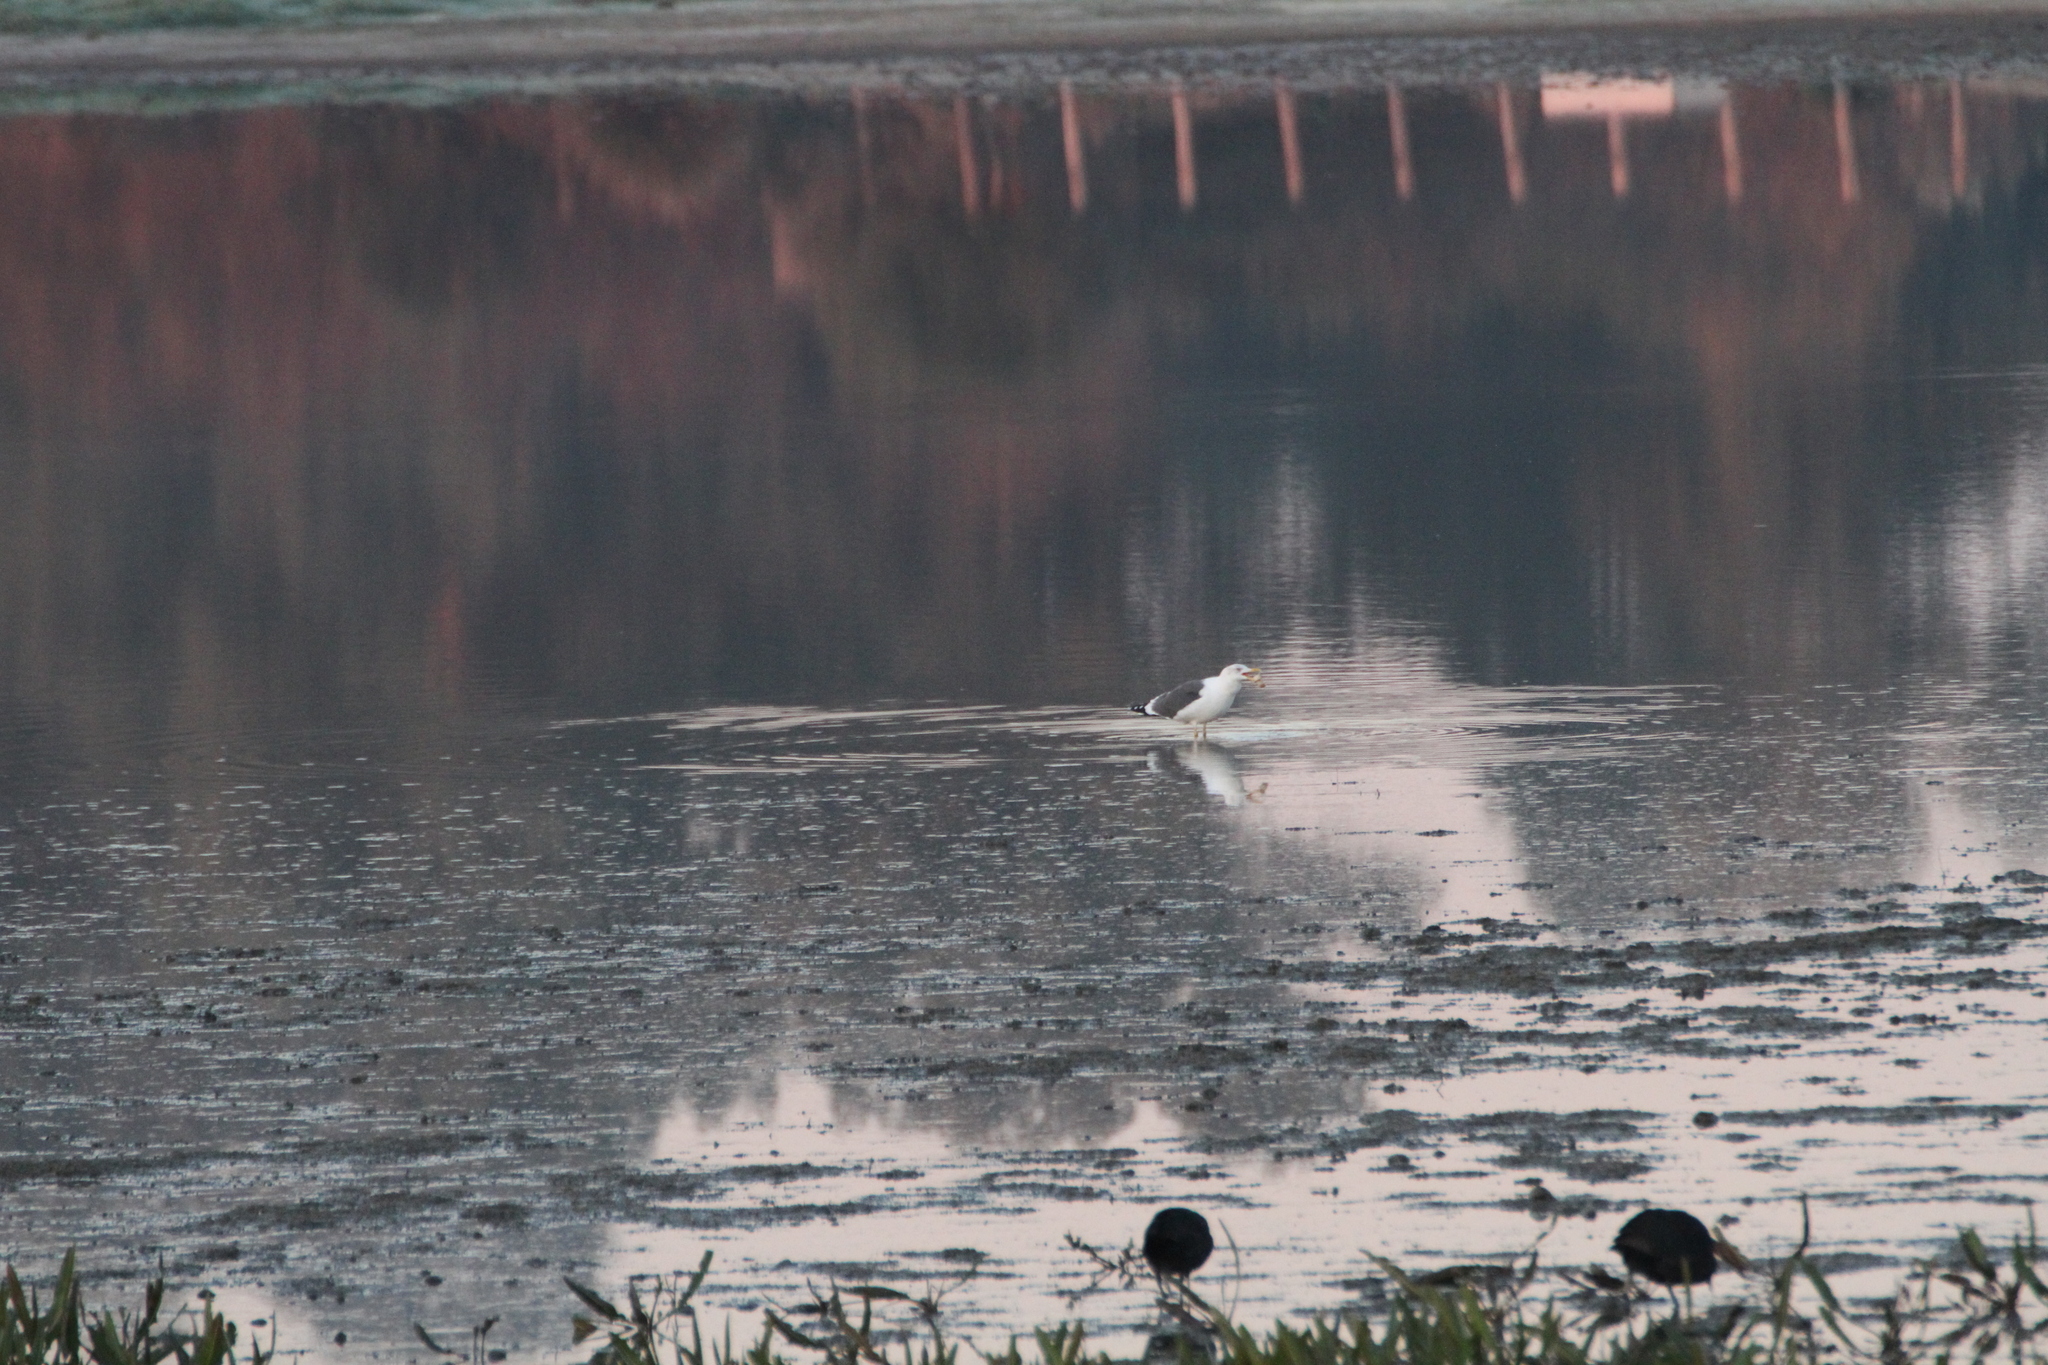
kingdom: Animalia
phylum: Chordata
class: Aves
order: Charadriiformes
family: Laridae
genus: Larus
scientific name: Larus fuscus
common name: Lesser black-backed gull
